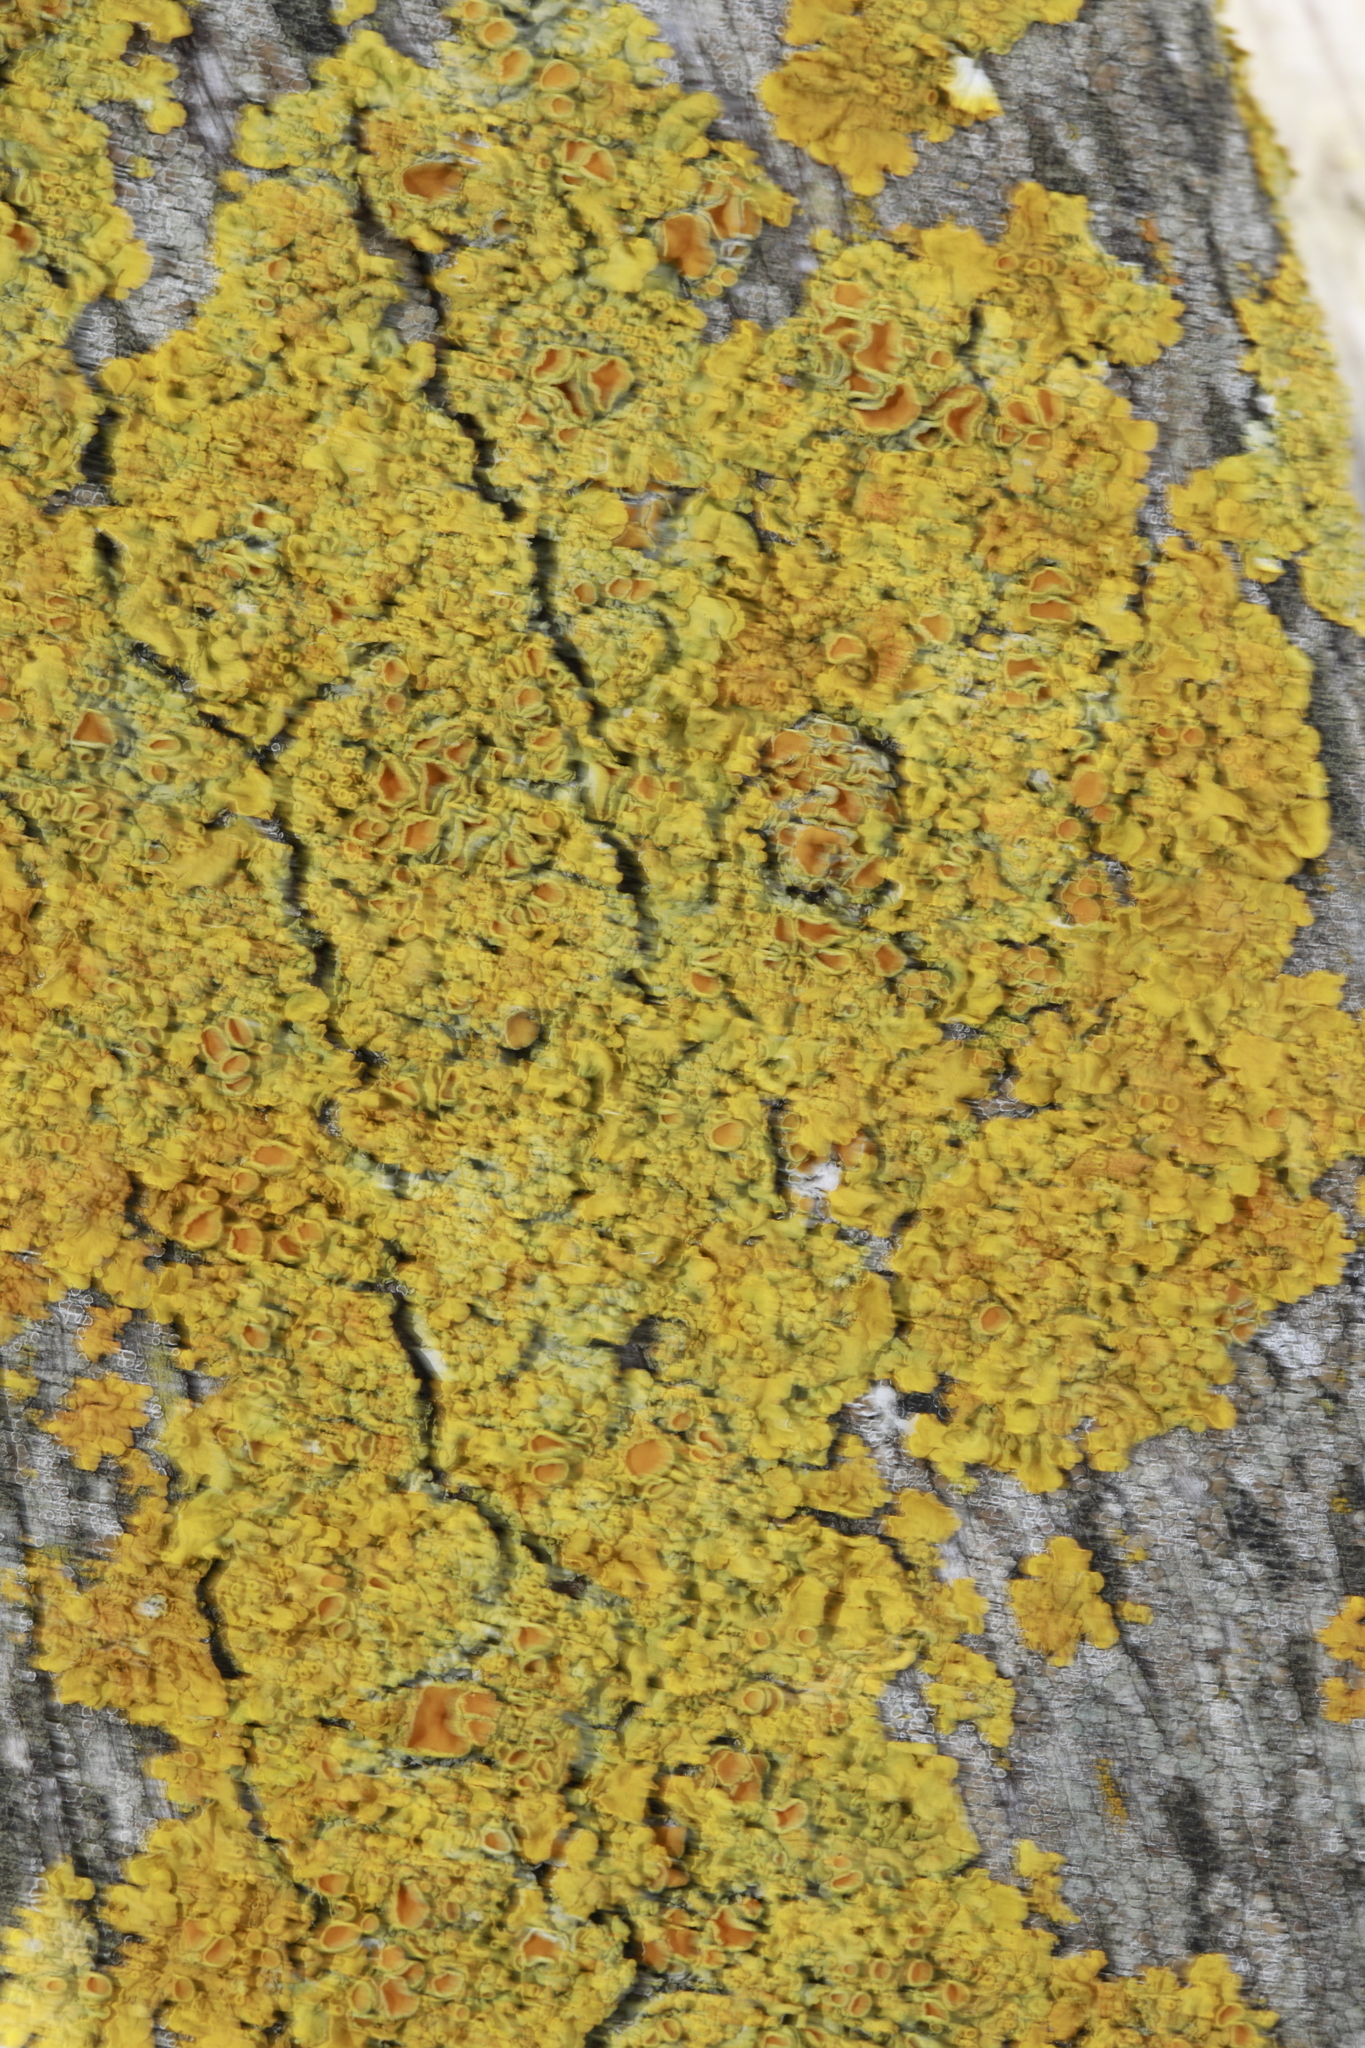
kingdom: Fungi
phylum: Ascomycota
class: Lecanoromycetes
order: Teloschistales
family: Teloschistaceae
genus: Xanthoria
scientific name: Xanthoria parietina
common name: Common orange lichen
